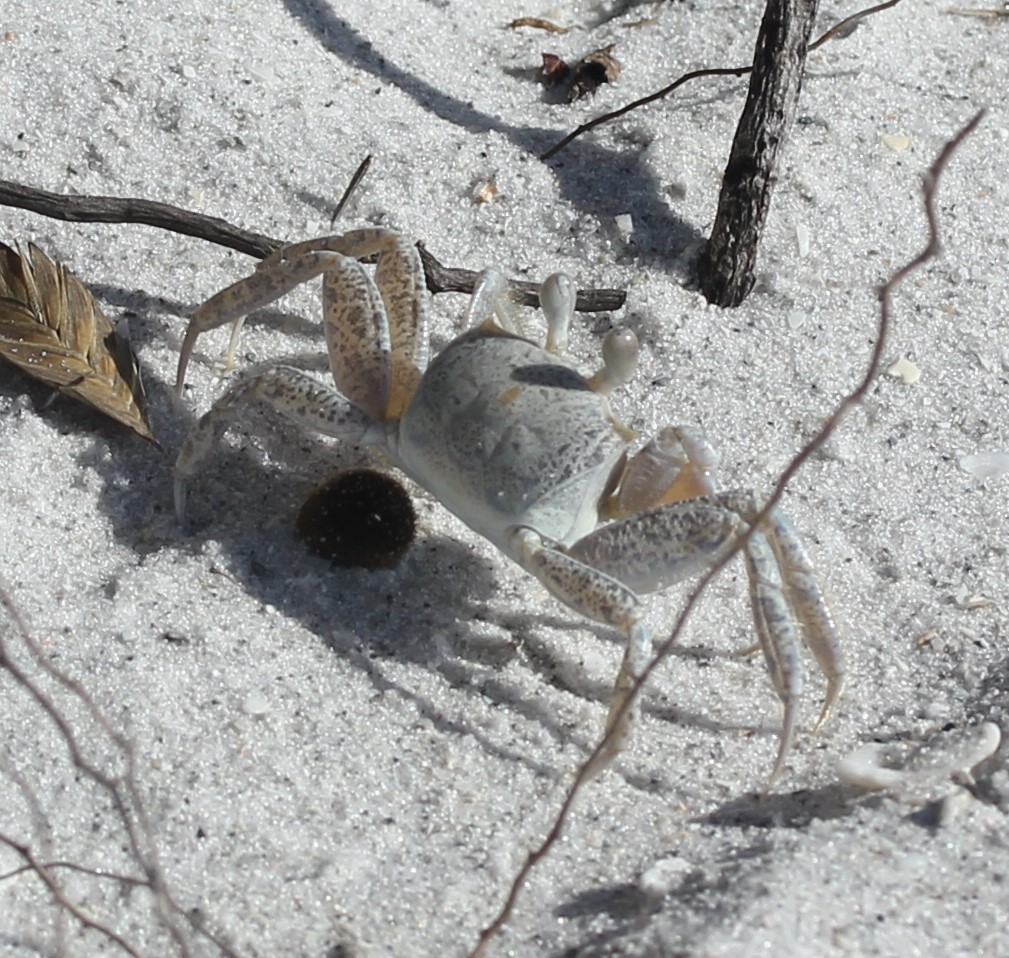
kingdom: Animalia
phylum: Arthropoda
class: Malacostraca
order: Decapoda
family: Ocypodidae
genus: Ocypode
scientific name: Ocypode quadrata
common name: Ghost crab
